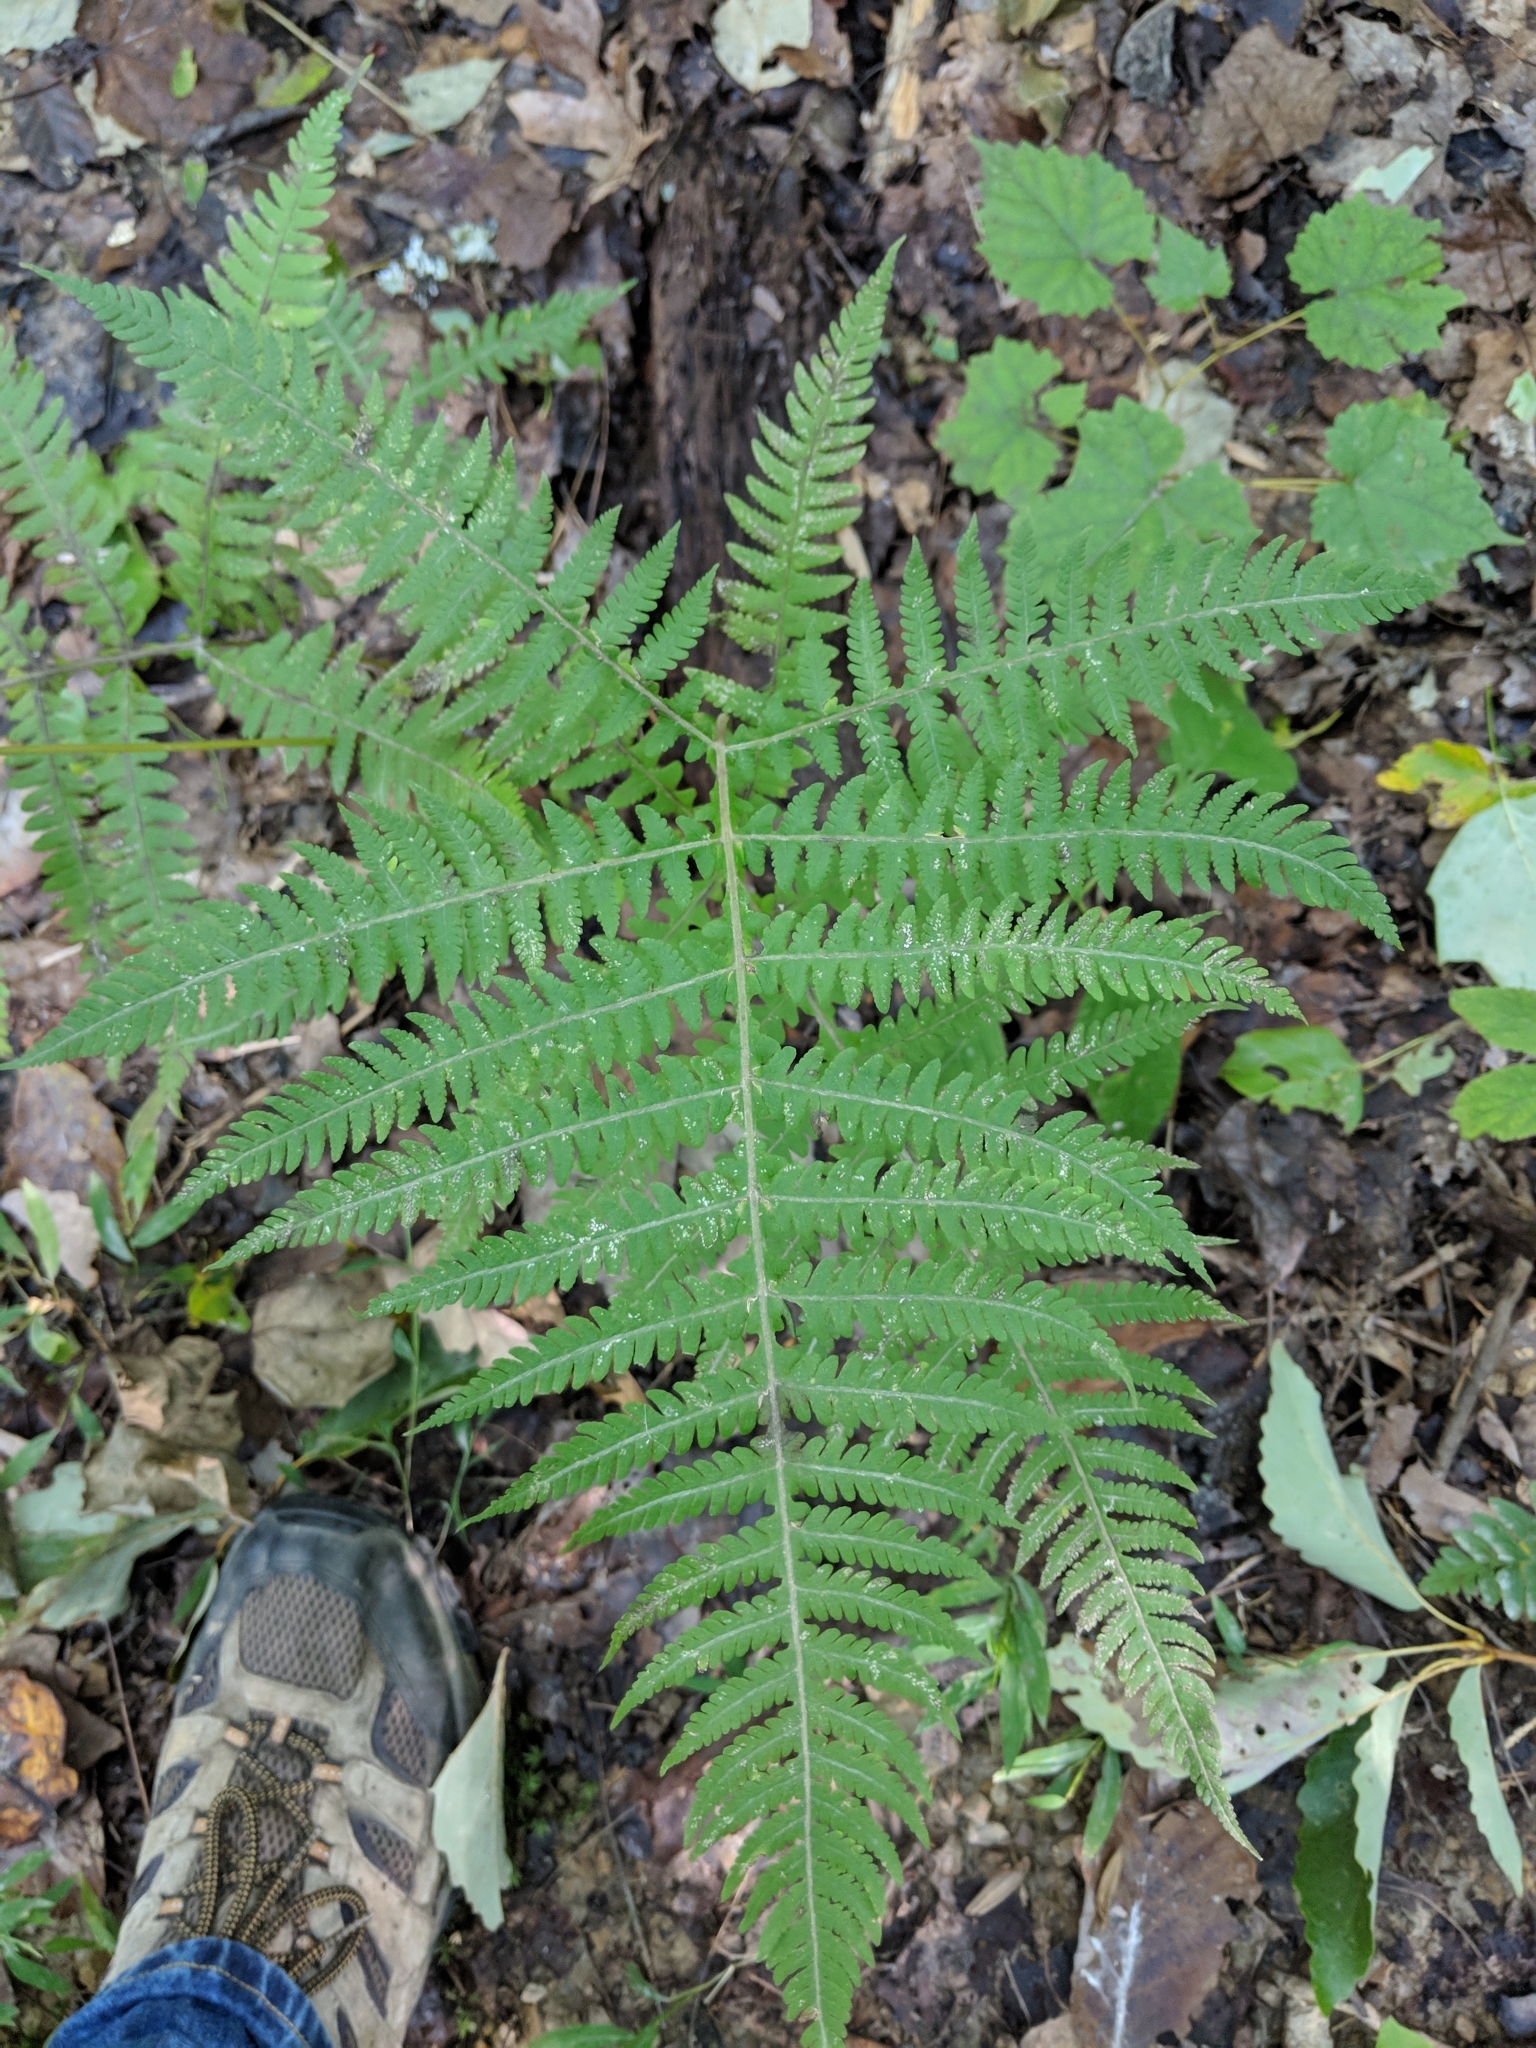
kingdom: Plantae
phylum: Tracheophyta
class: Polypodiopsida
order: Polypodiales
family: Thelypteridaceae
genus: Phegopteris
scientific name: Phegopteris hexagonoptera
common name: Broad beech fern
